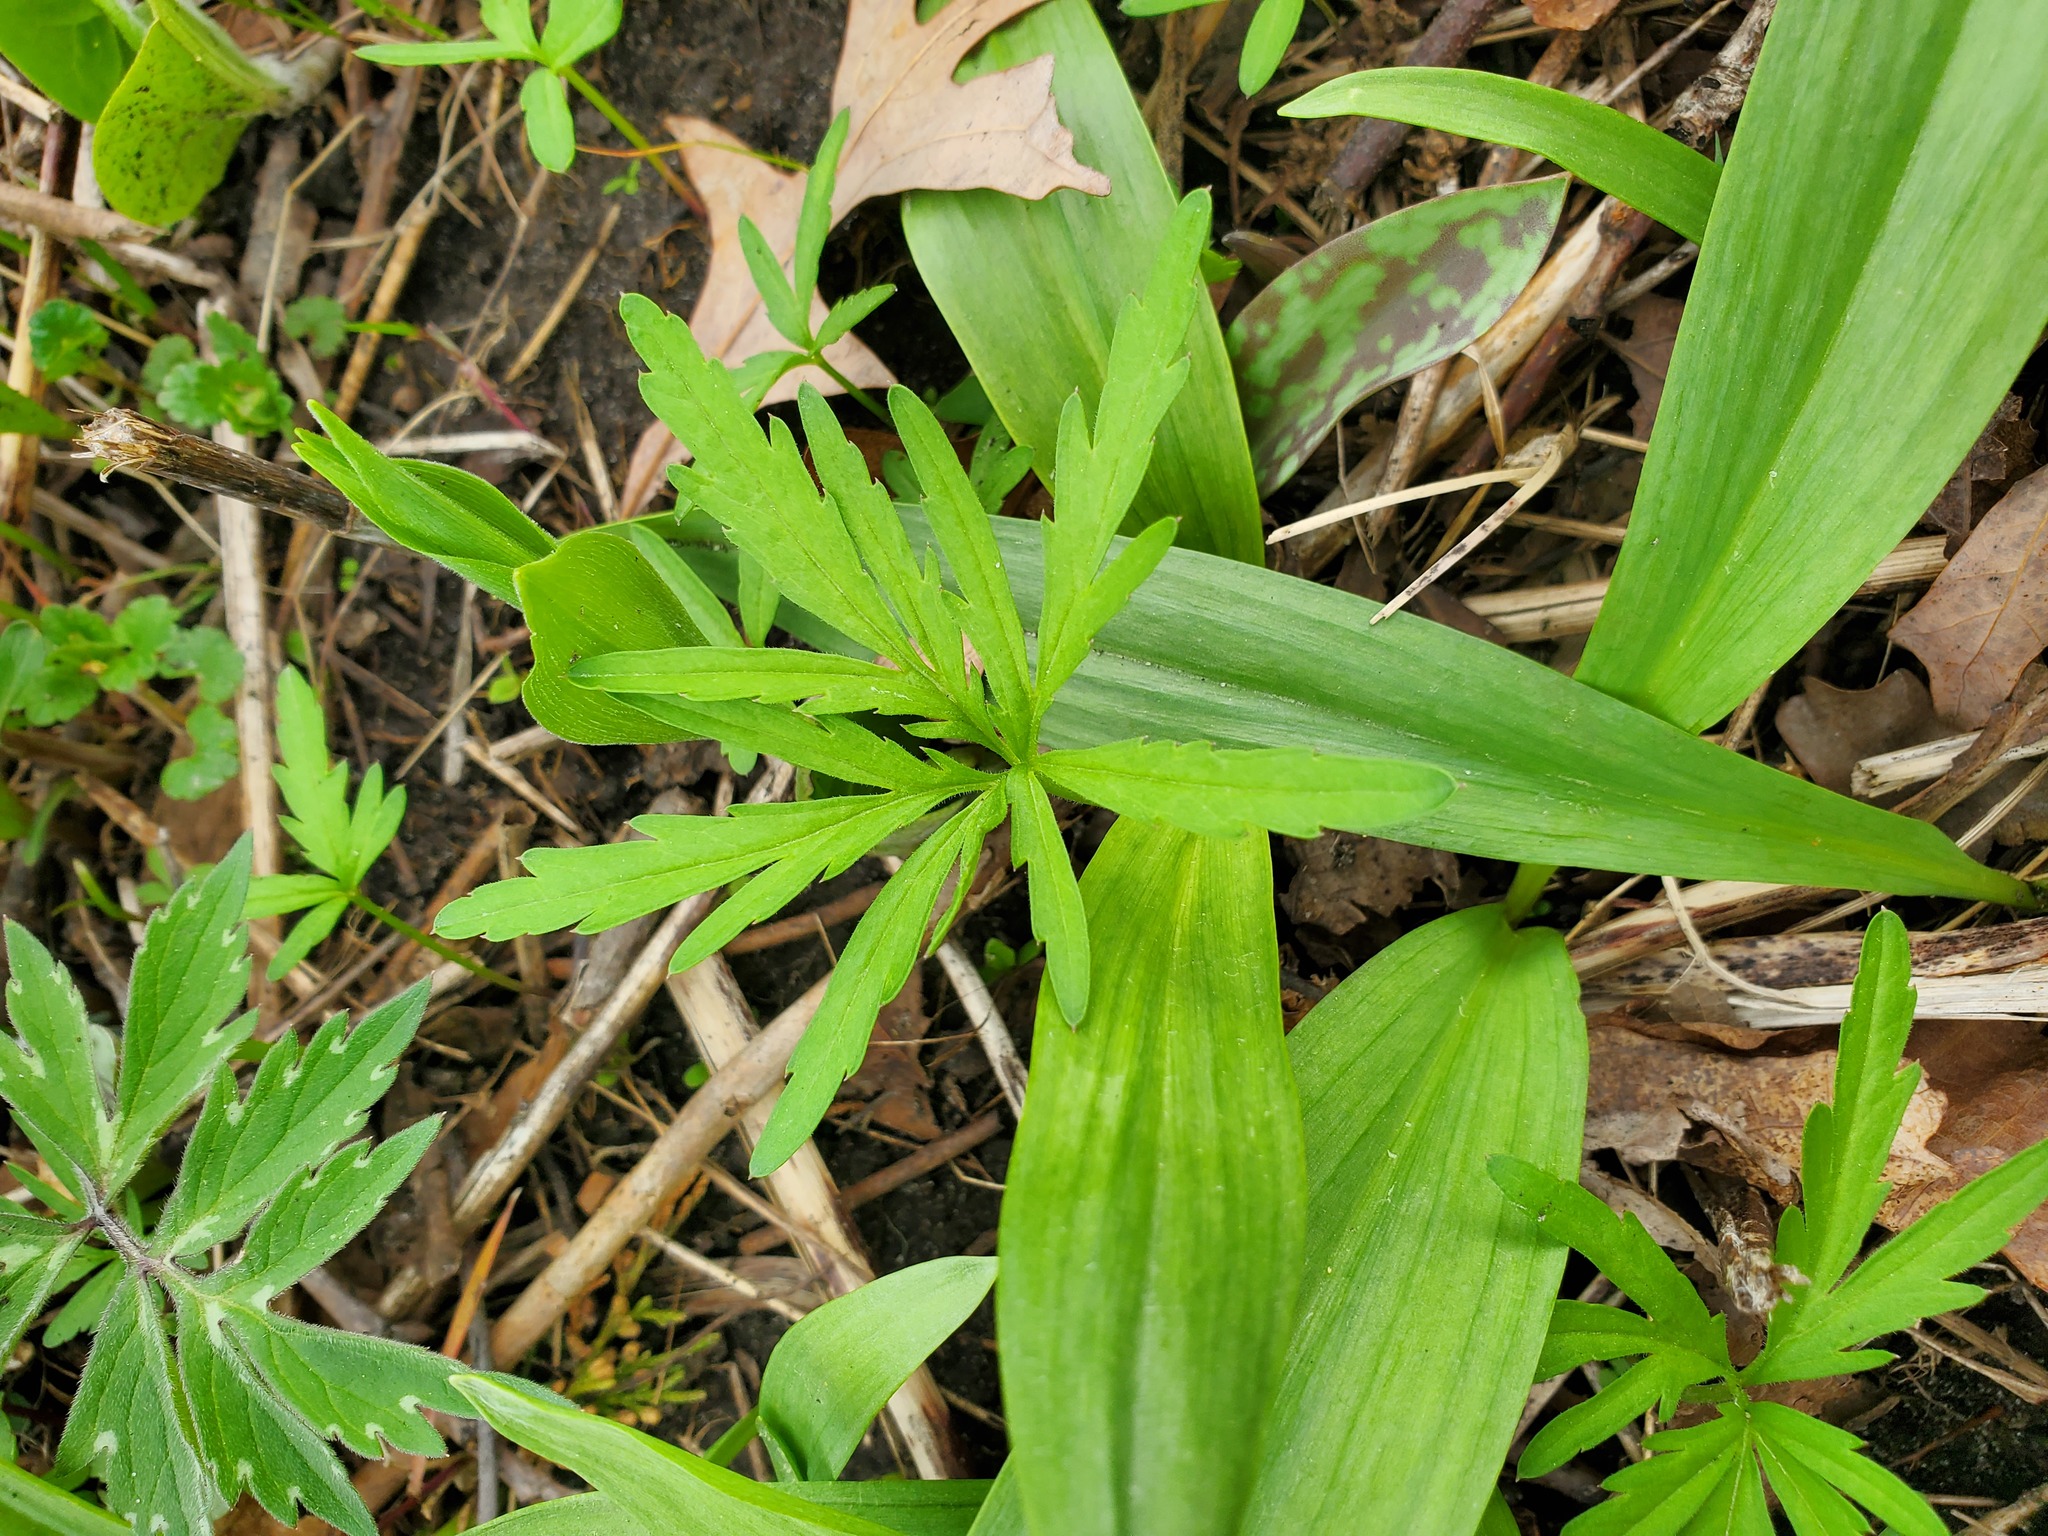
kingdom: Plantae
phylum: Tracheophyta
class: Magnoliopsida
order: Brassicales
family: Brassicaceae
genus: Cardamine
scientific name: Cardamine concatenata
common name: Cut-leaf toothcup
